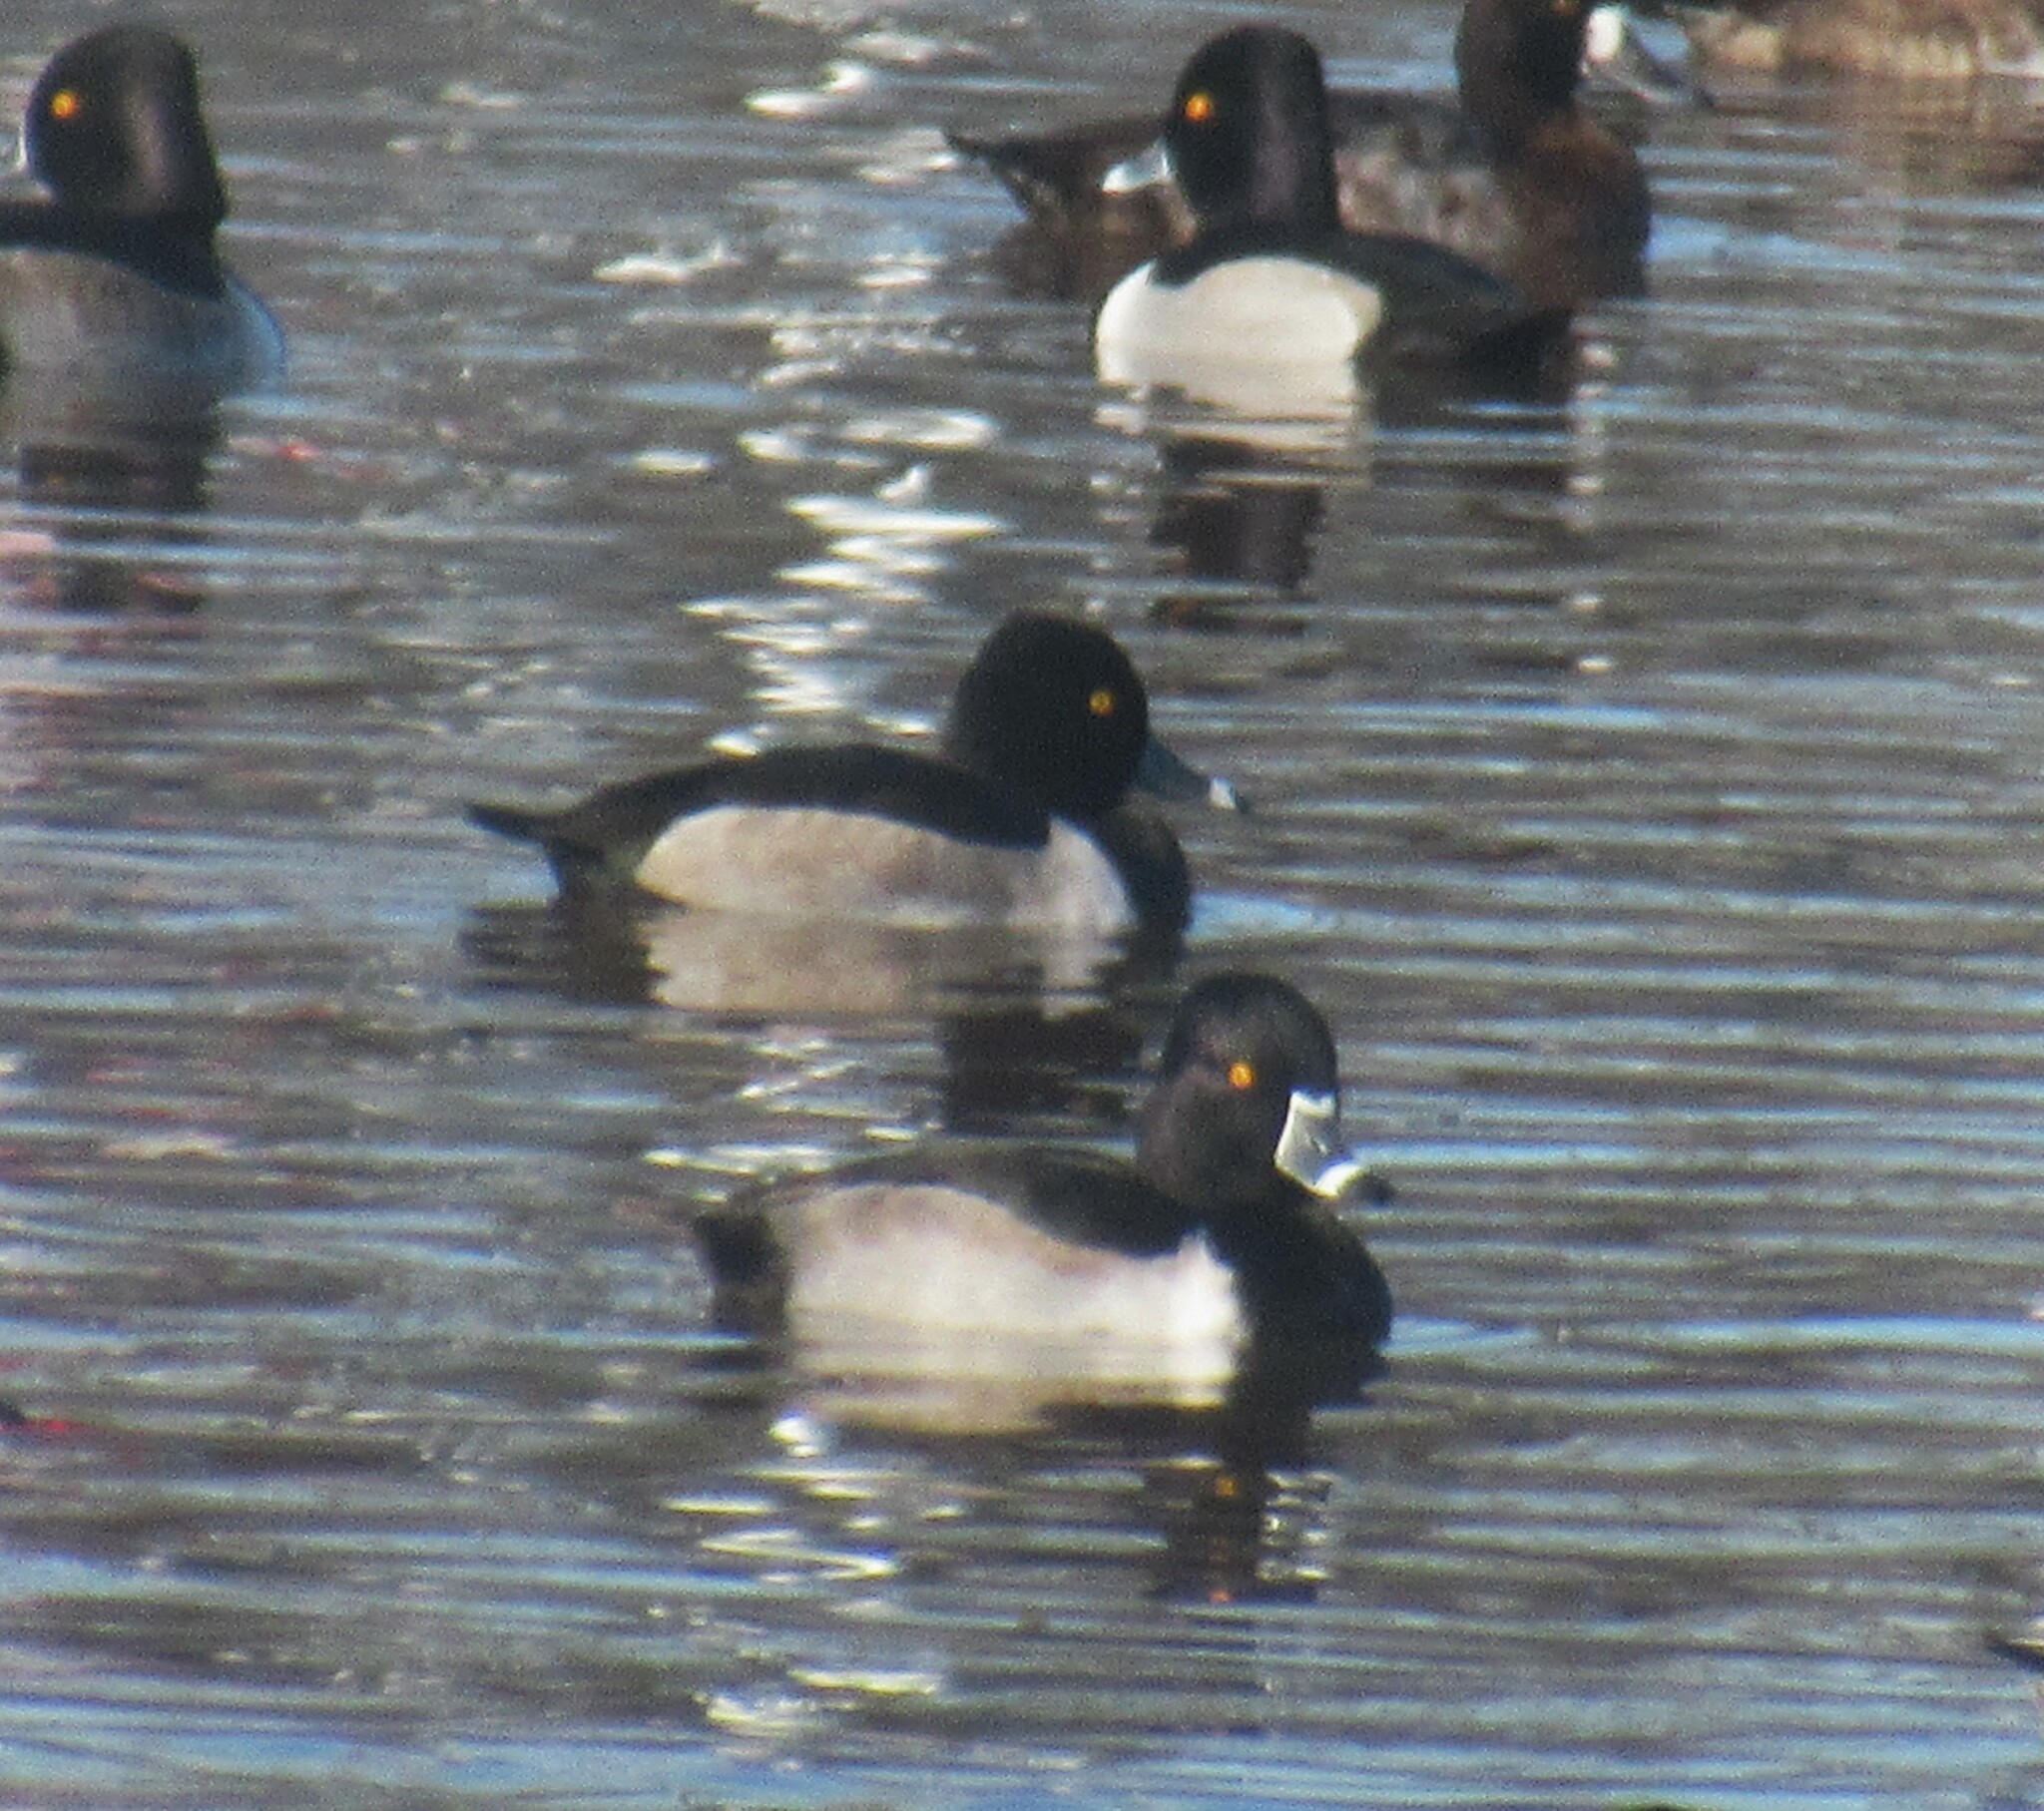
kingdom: Animalia
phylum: Chordata
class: Aves
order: Anseriformes
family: Anatidae
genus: Aythya
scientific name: Aythya collaris
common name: Ring-necked duck
